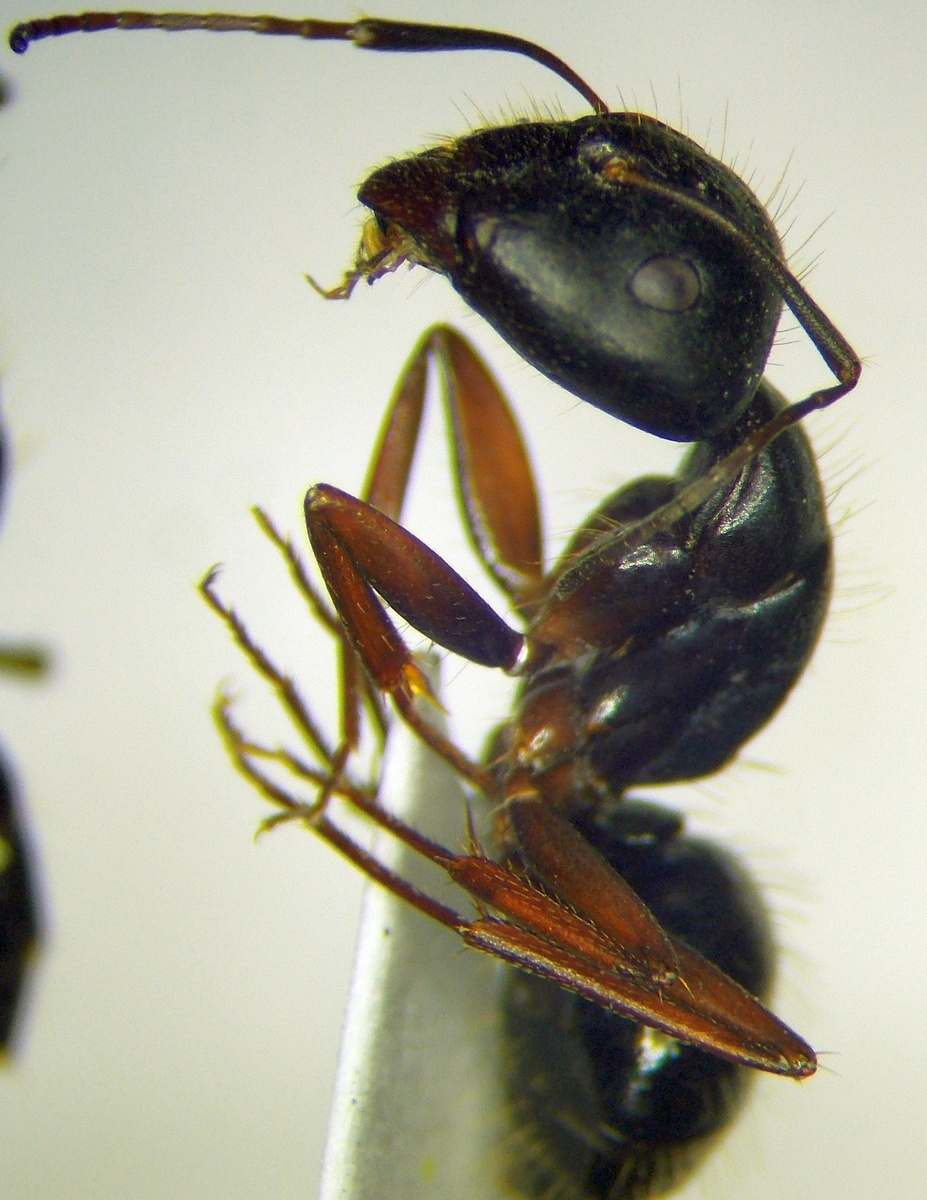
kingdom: Animalia
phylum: Arthropoda
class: Insecta
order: Hymenoptera
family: Formicidae
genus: Camponotus
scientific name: Camponotus aethiops
